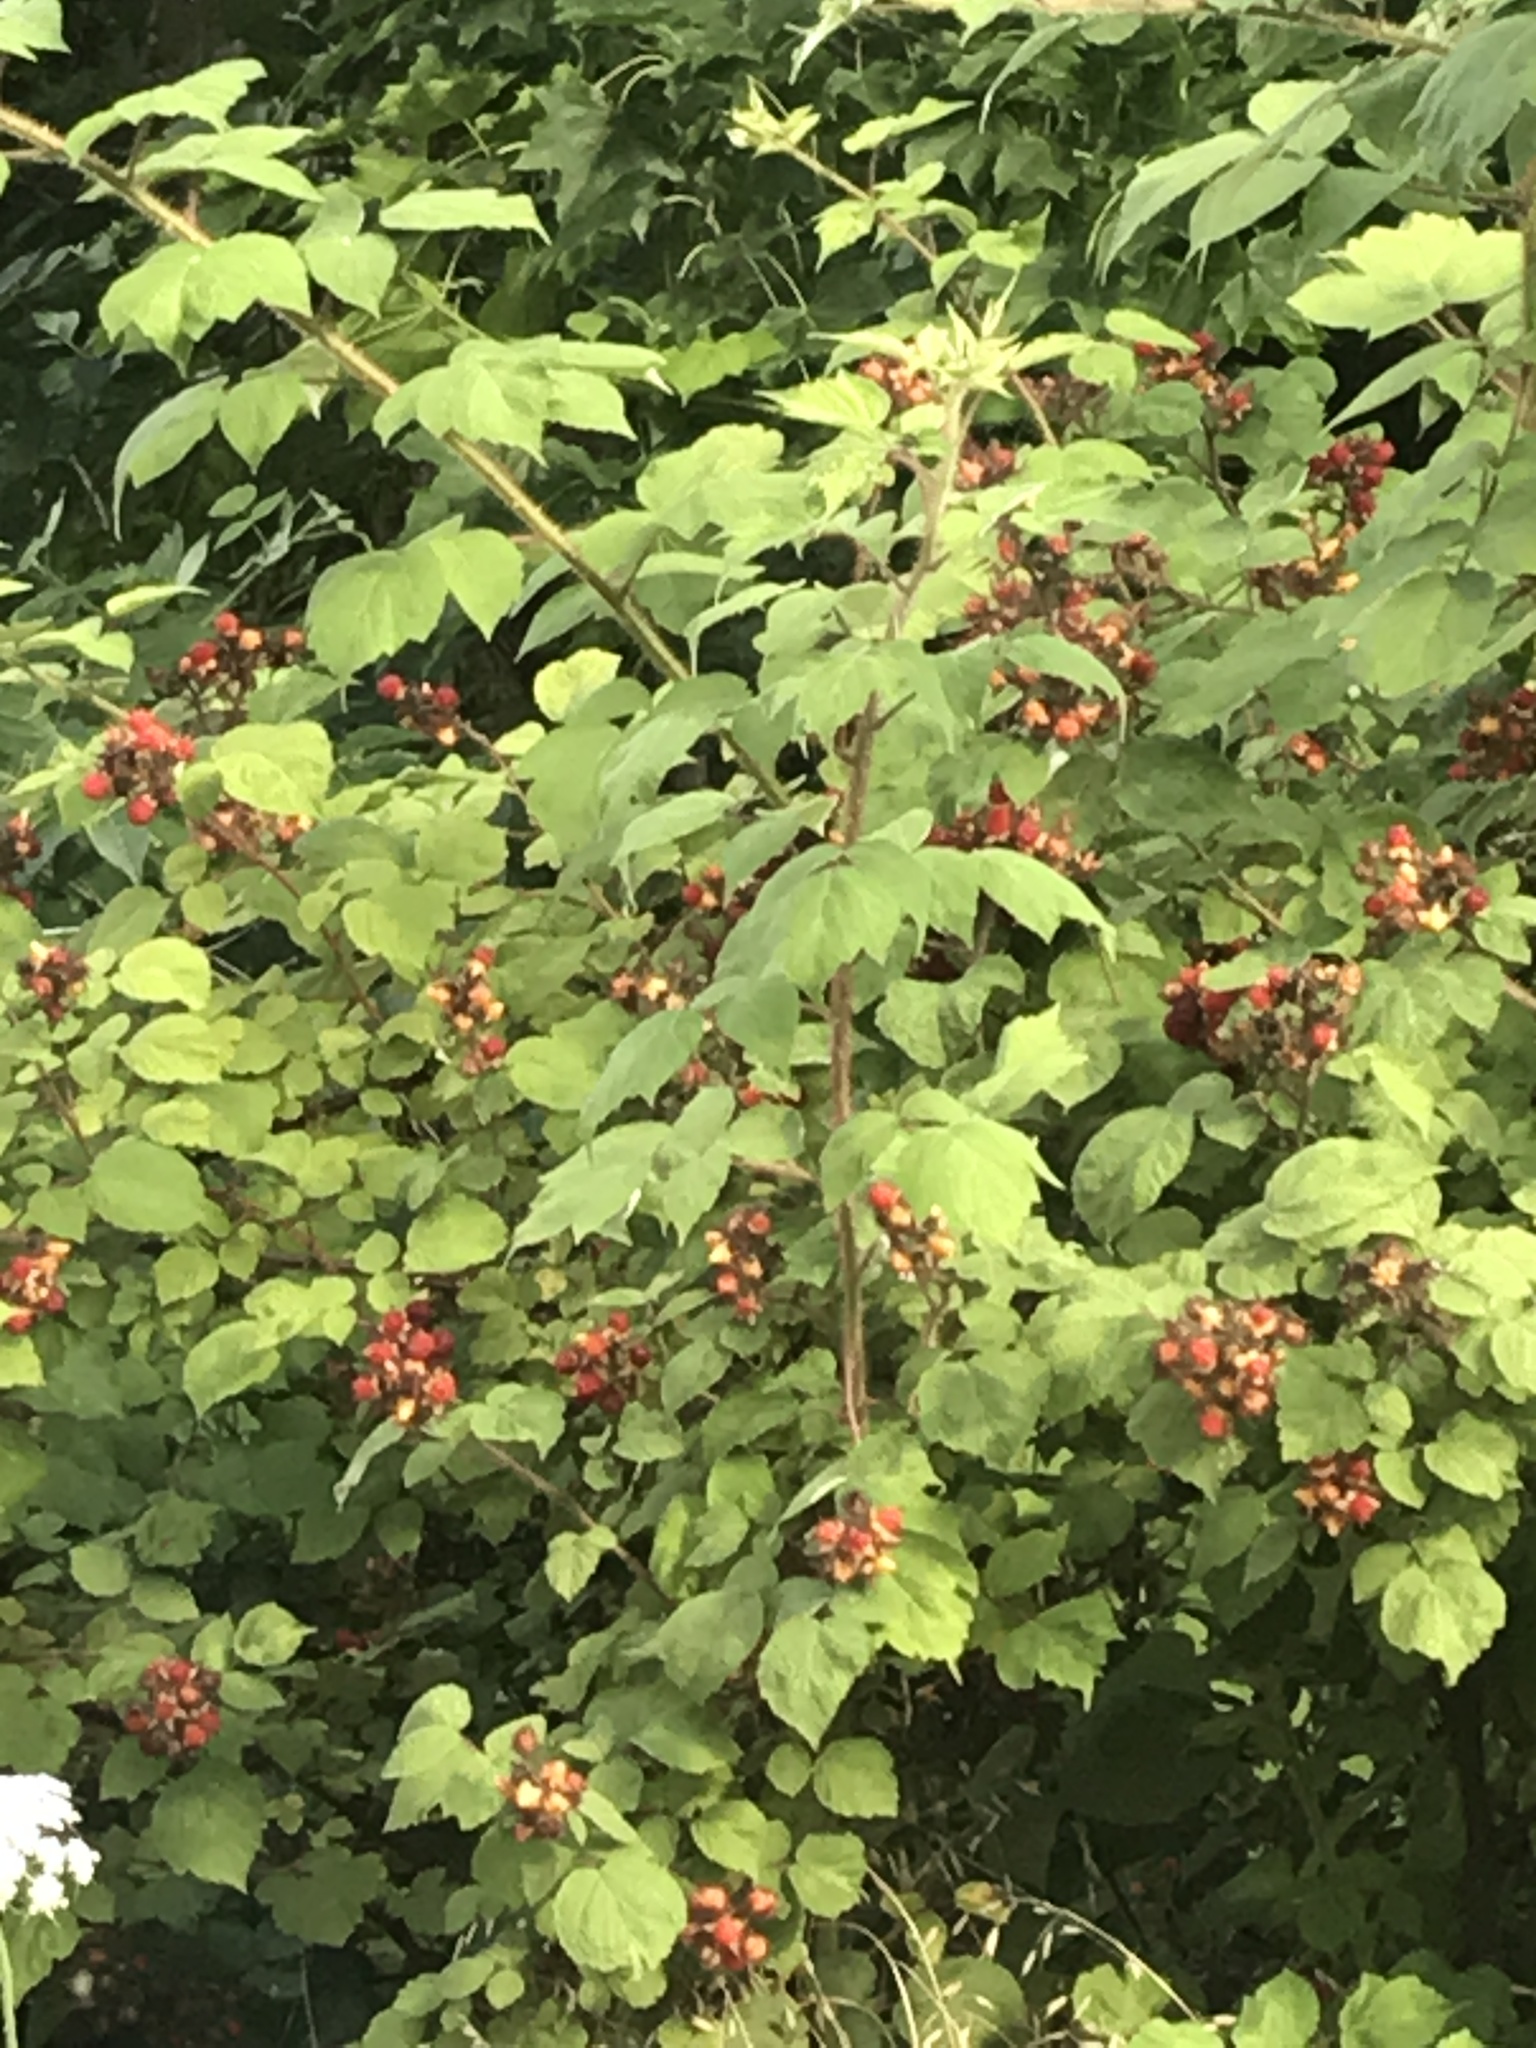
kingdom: Plantae
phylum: Tracheophyta
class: Magnoliopsida
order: Rosales
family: Rosaceae
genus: Rubus
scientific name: Rubus phoenicolasius
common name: Japanese wineberry
